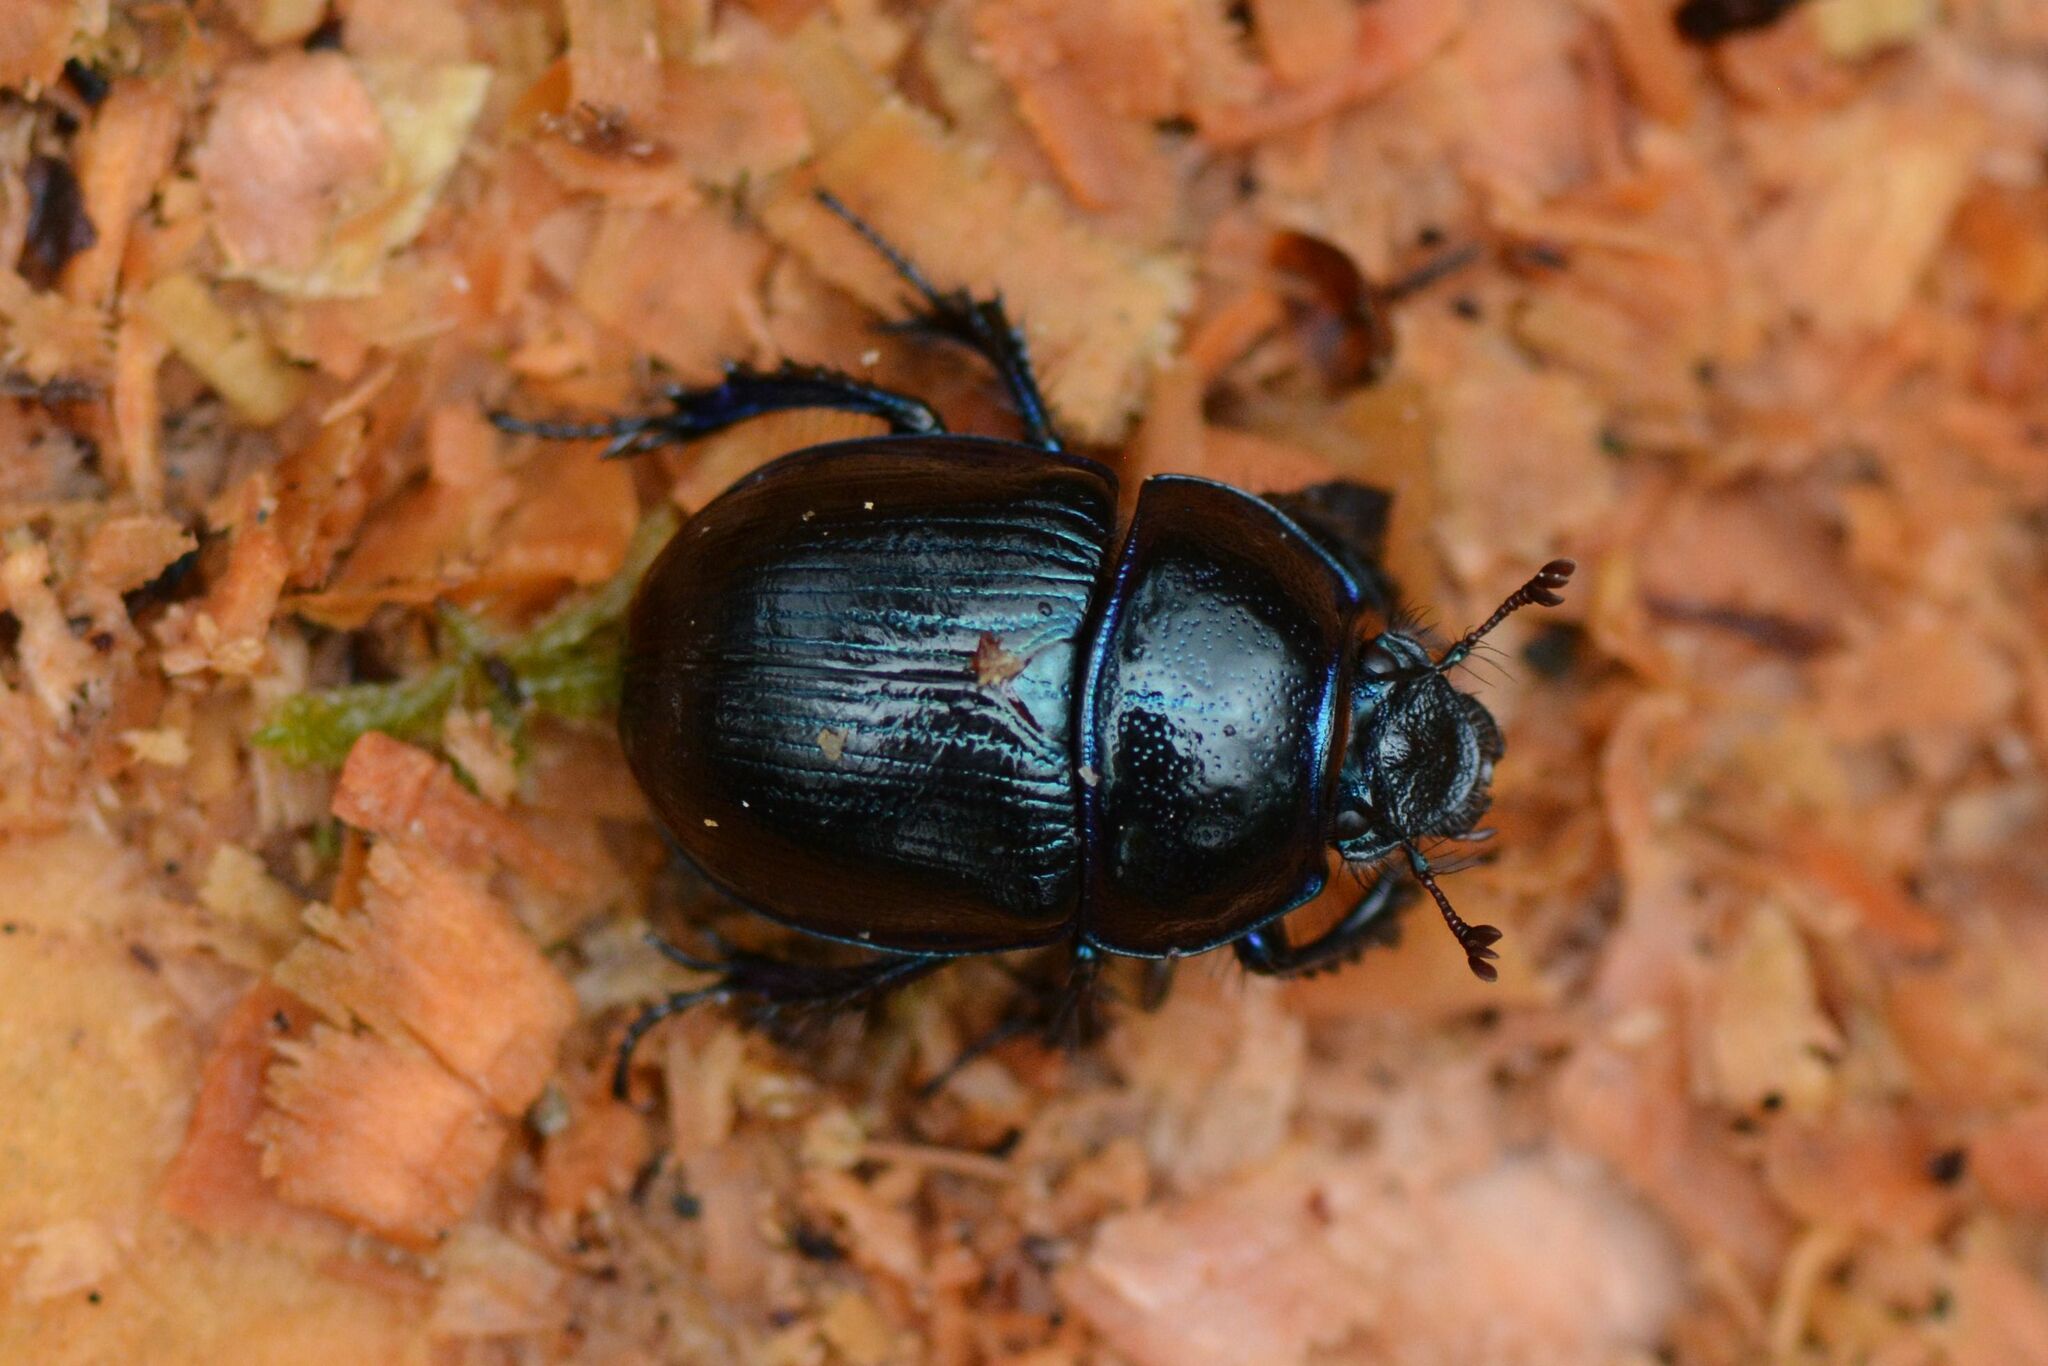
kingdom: Animalia
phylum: Arthropoda
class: Insecta
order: Coleoptera
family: Geotrupidae
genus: Anoplotrupes
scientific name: Anoplotrupes stercorosus
